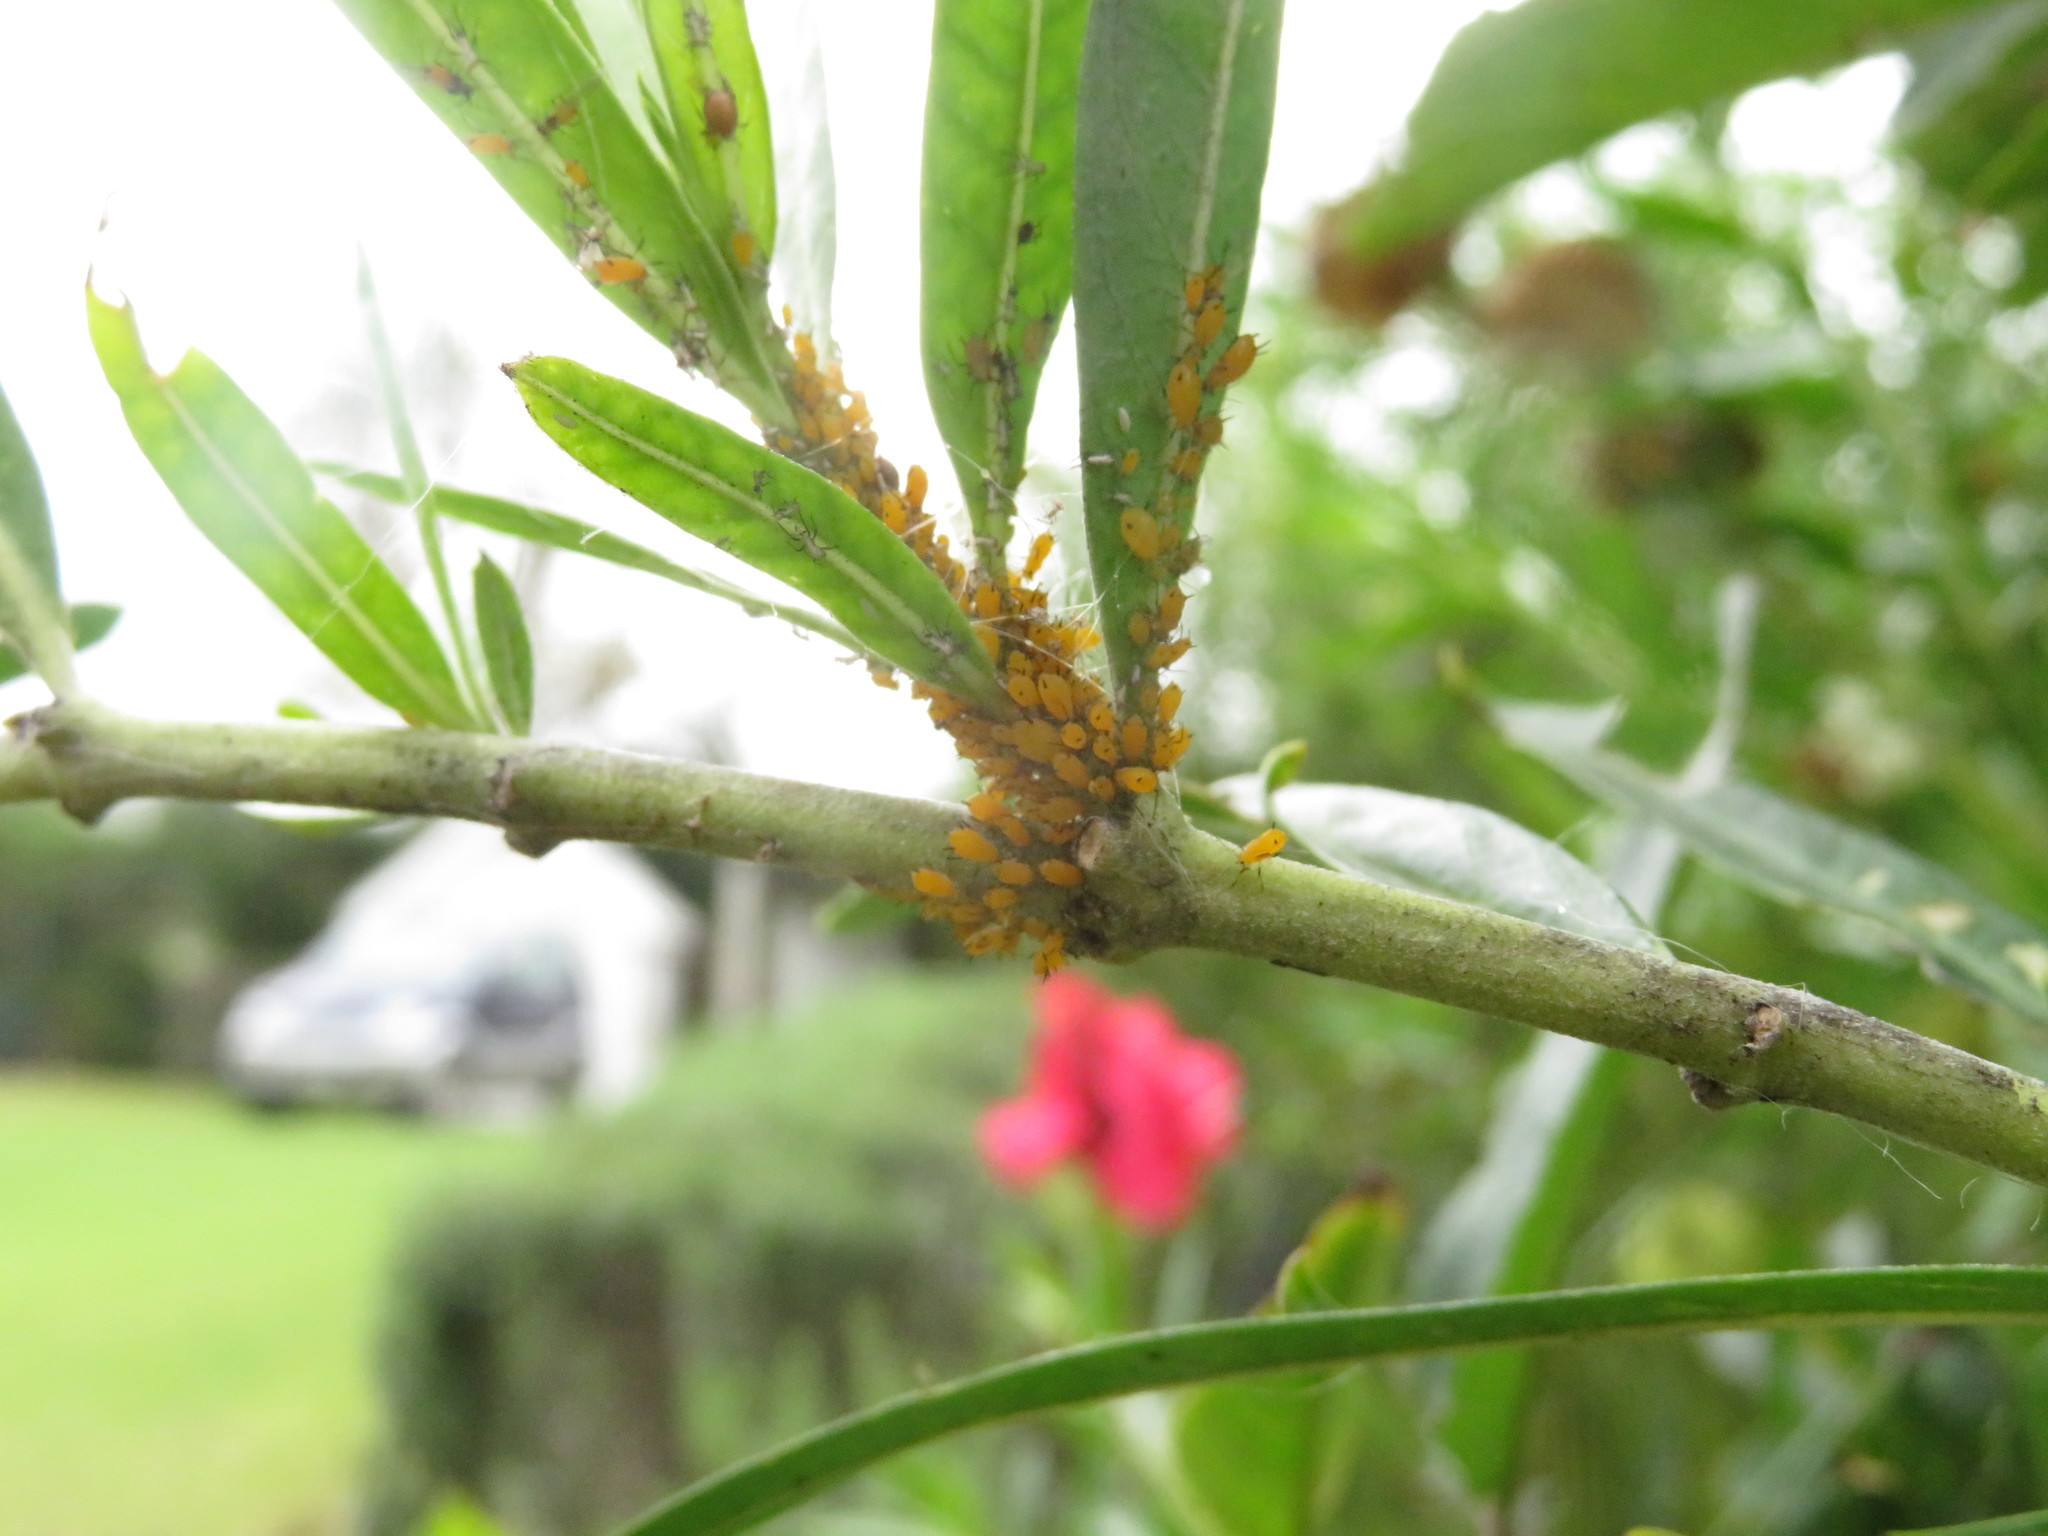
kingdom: Animalia
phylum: Arthropoda
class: Insecta
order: Hemiptera
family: Aphididae
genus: Aphis
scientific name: Aphis nerii
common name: Oleander aphid
